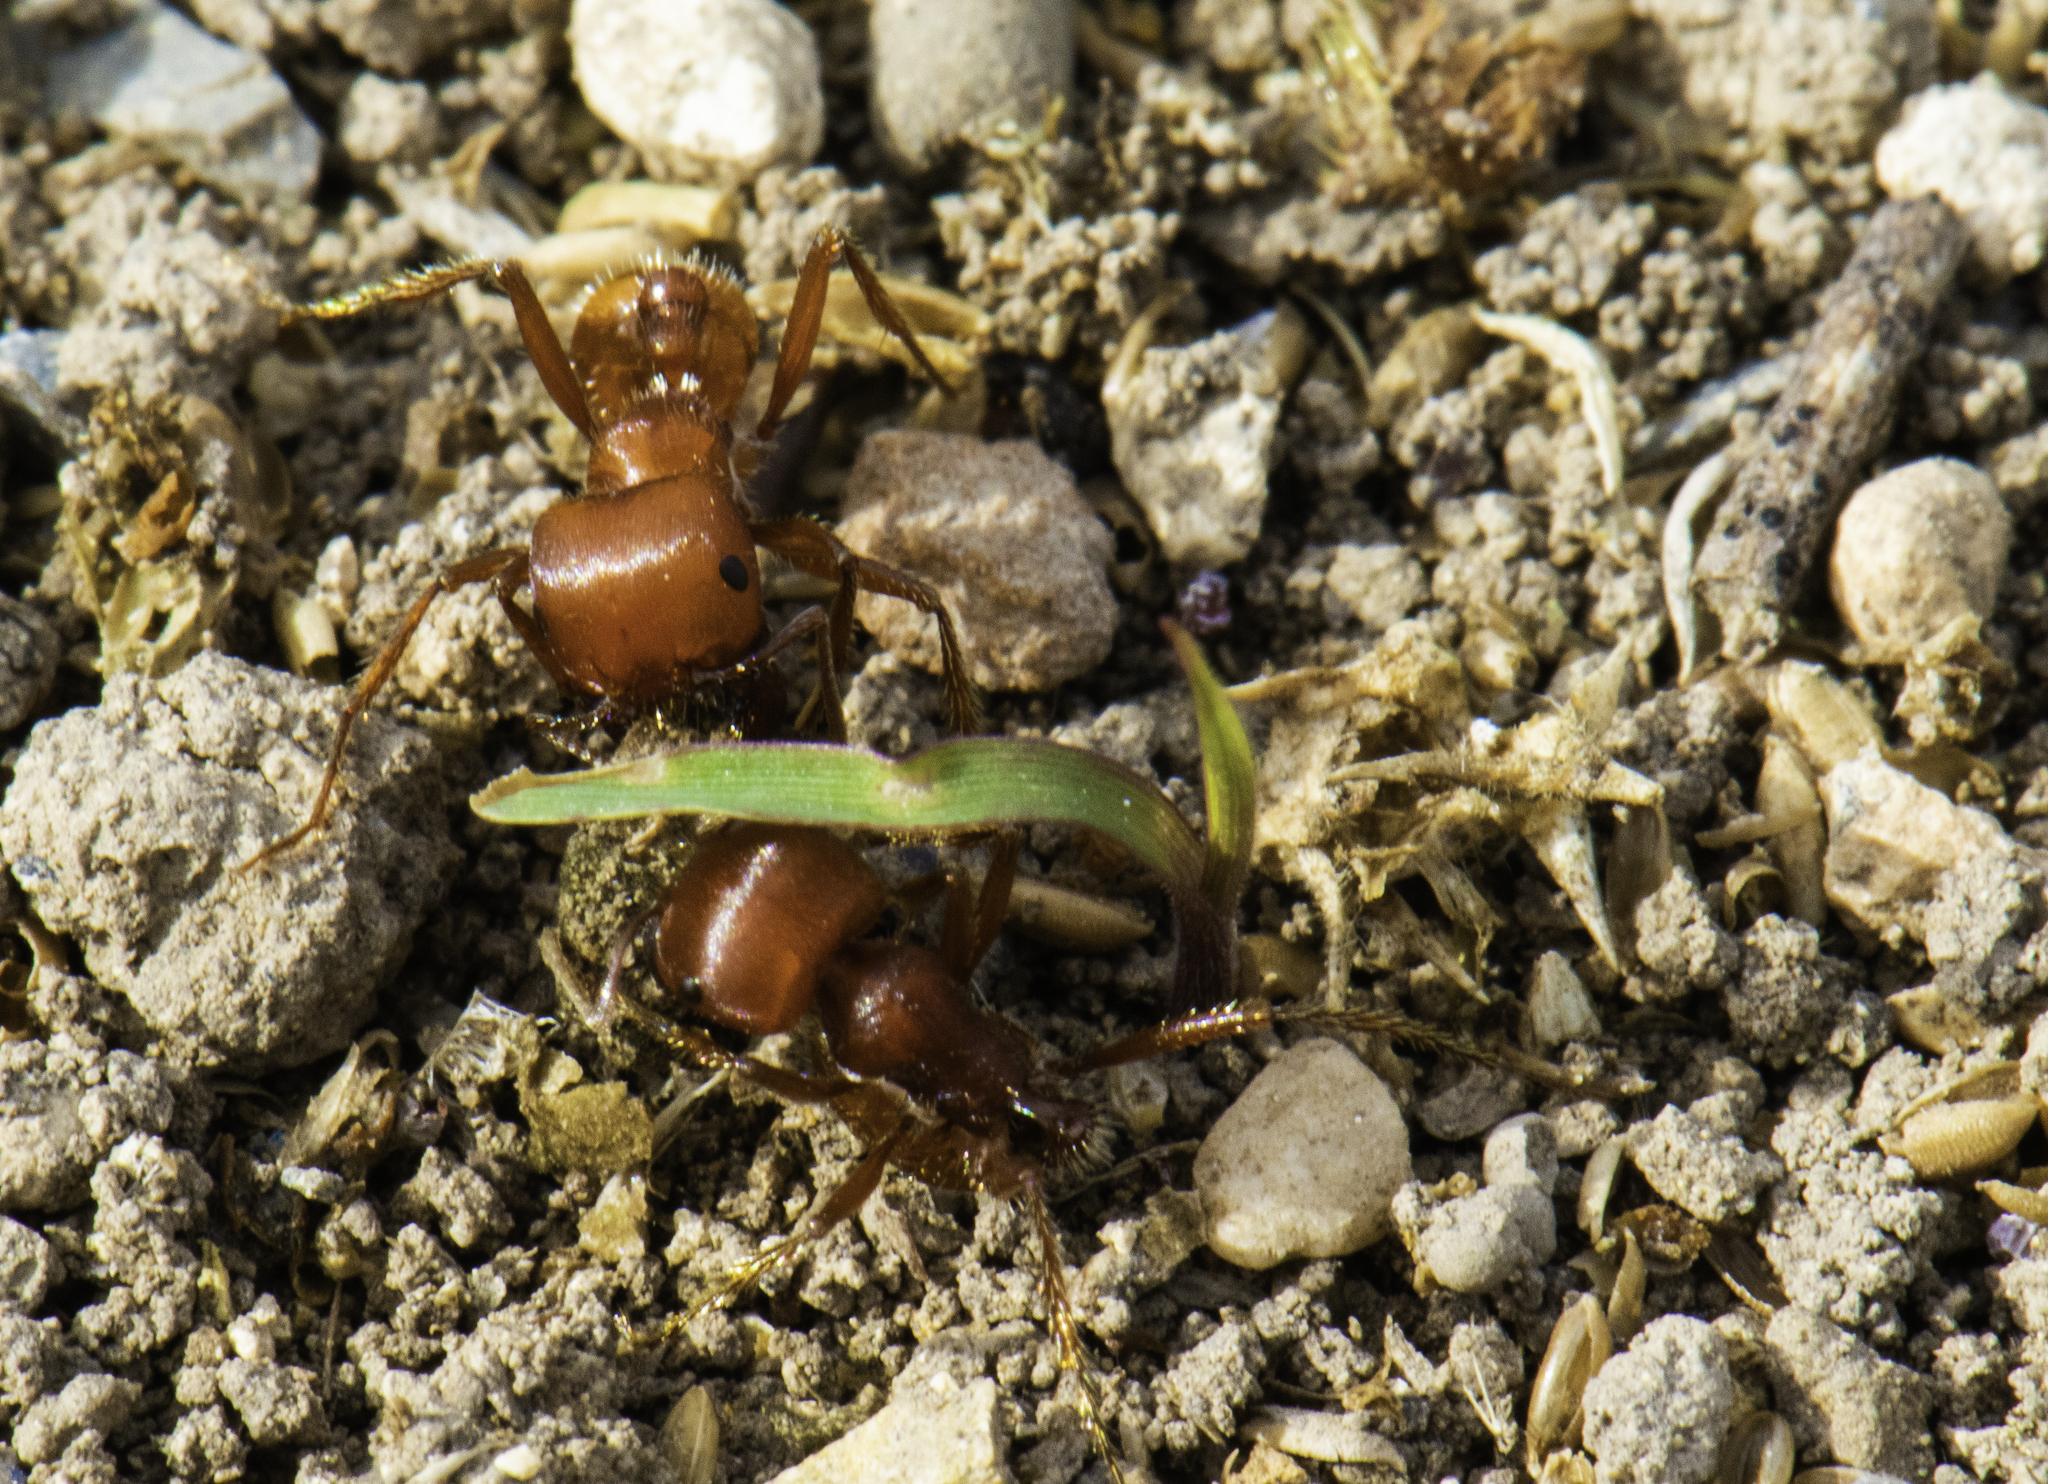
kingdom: Animalia
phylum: Arthropoda
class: Insecta
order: Hymenoptera
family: Formicidae
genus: Pogonomyrmex
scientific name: Pogonomyrmex barbatus
